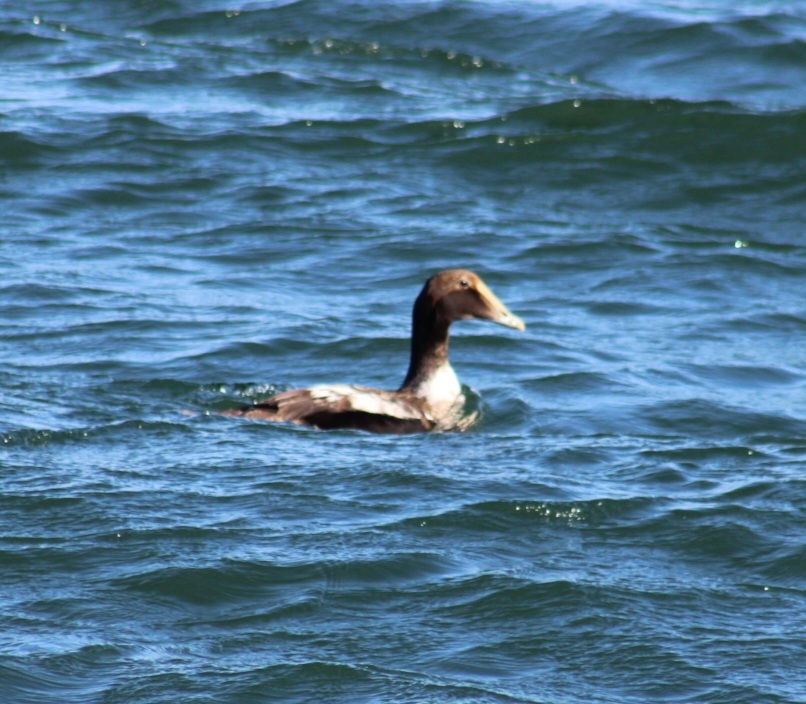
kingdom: Animalia
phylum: Chordata
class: Aves
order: Anseriformes
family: Anatidae
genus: Somateria
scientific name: Somateria mollissima
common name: Common eider
